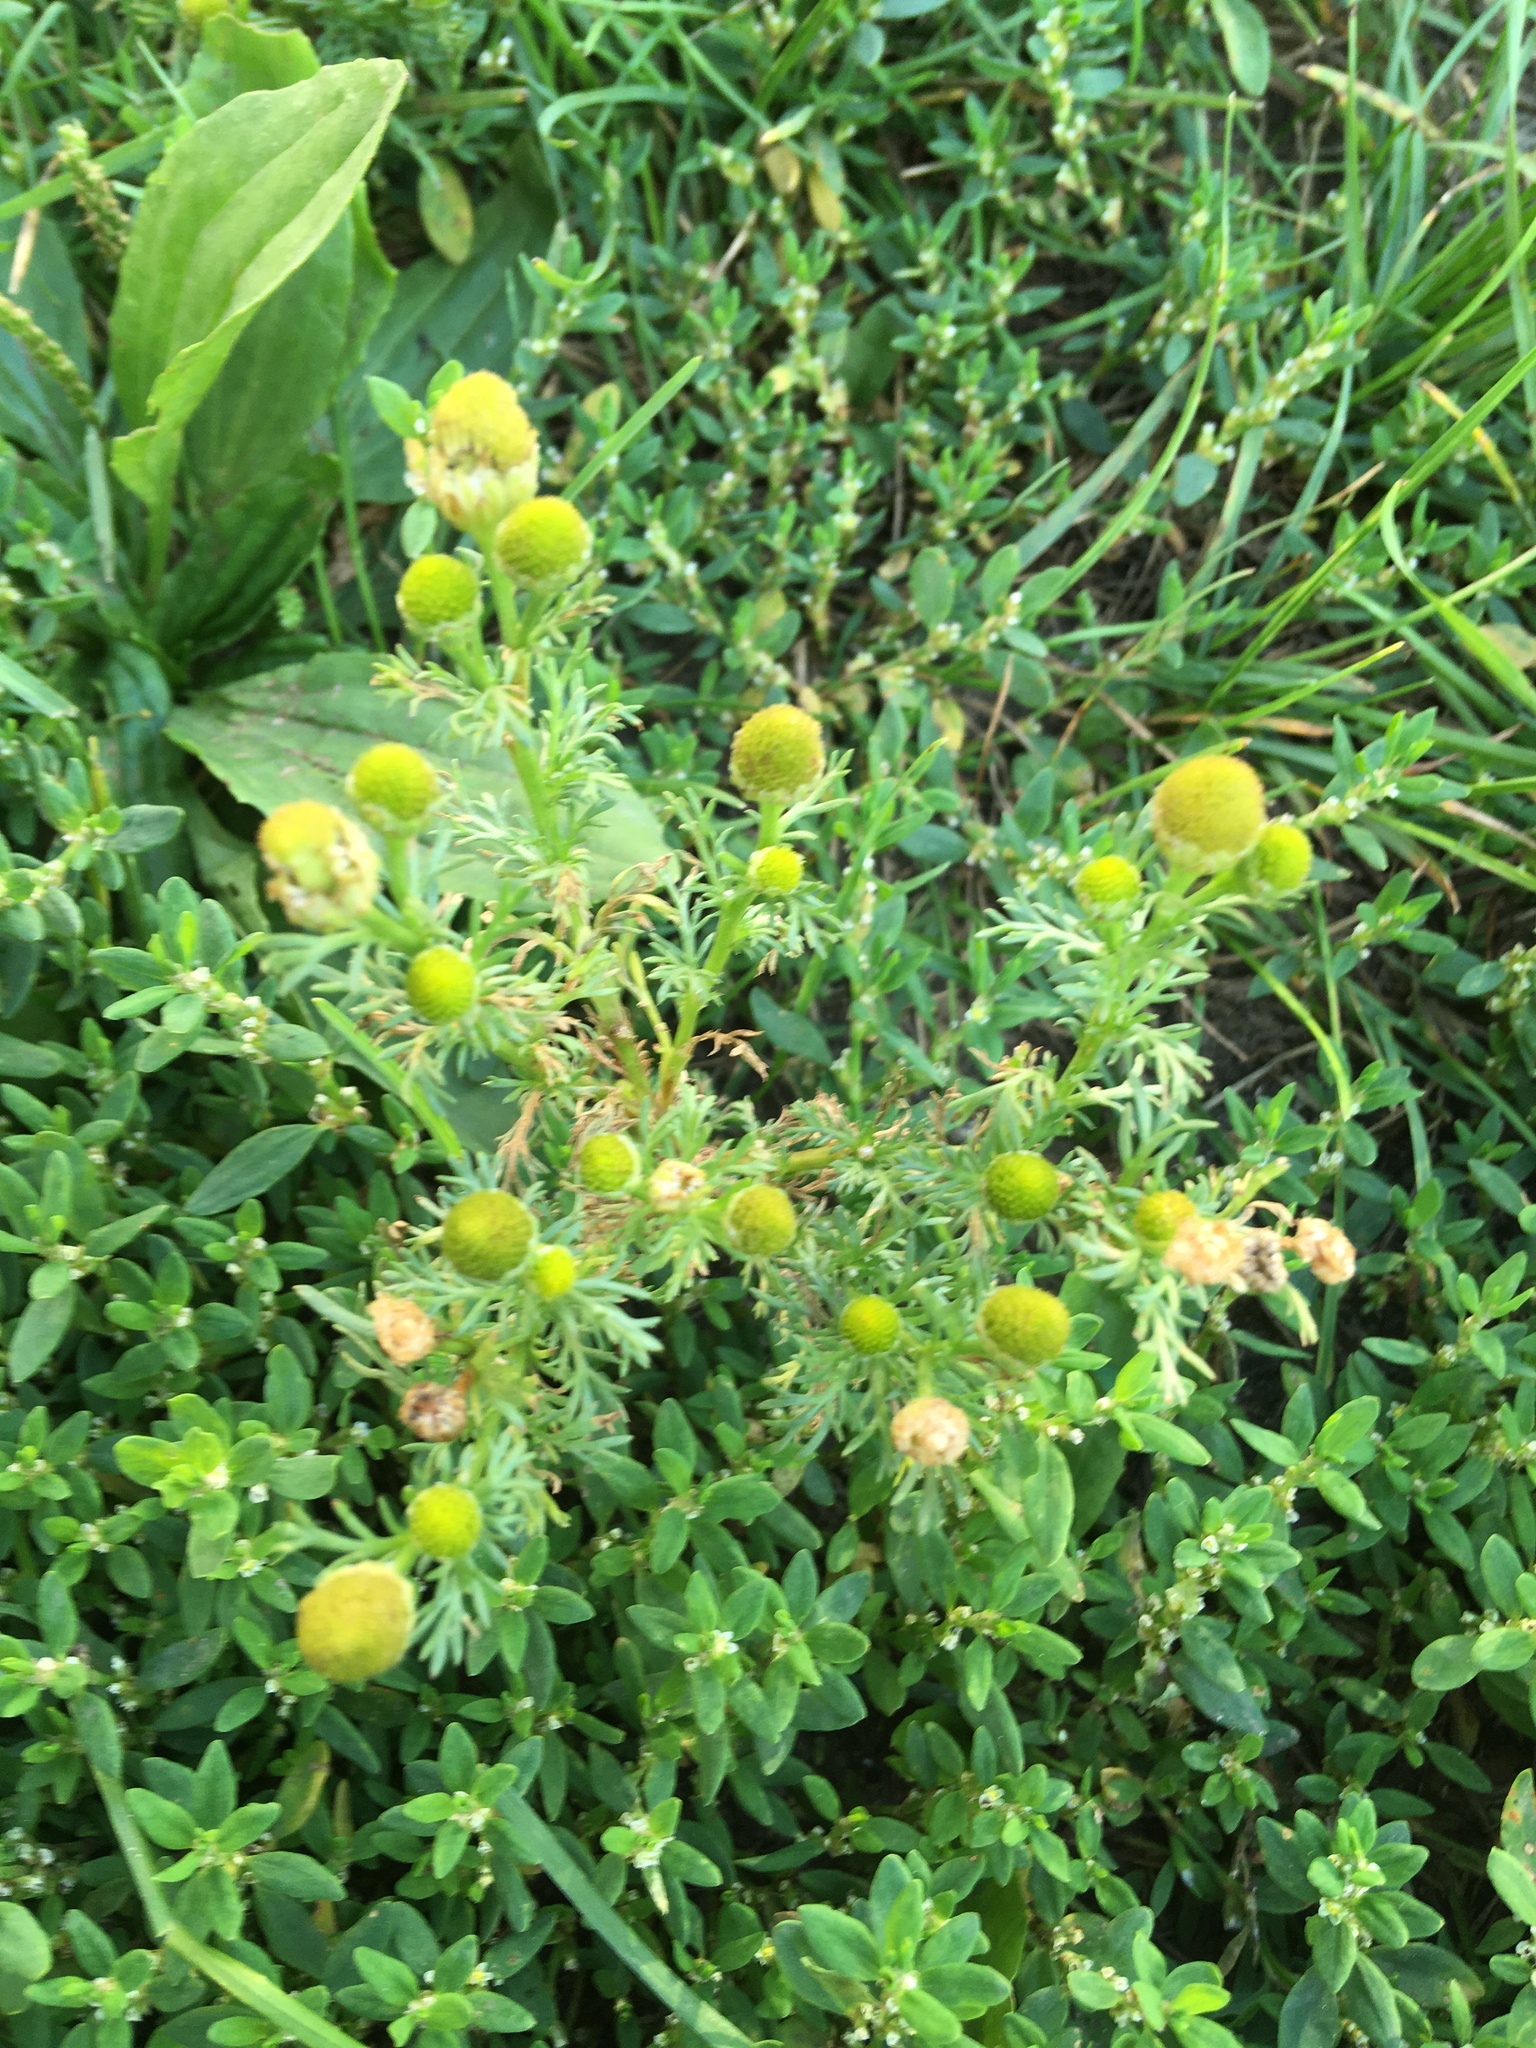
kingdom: Plantae
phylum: Tracheophyta
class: Magnoliopsida
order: Asterales
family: Asteraceae
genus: Matricaria
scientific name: Matricaria discoidea
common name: Disc mayweed
